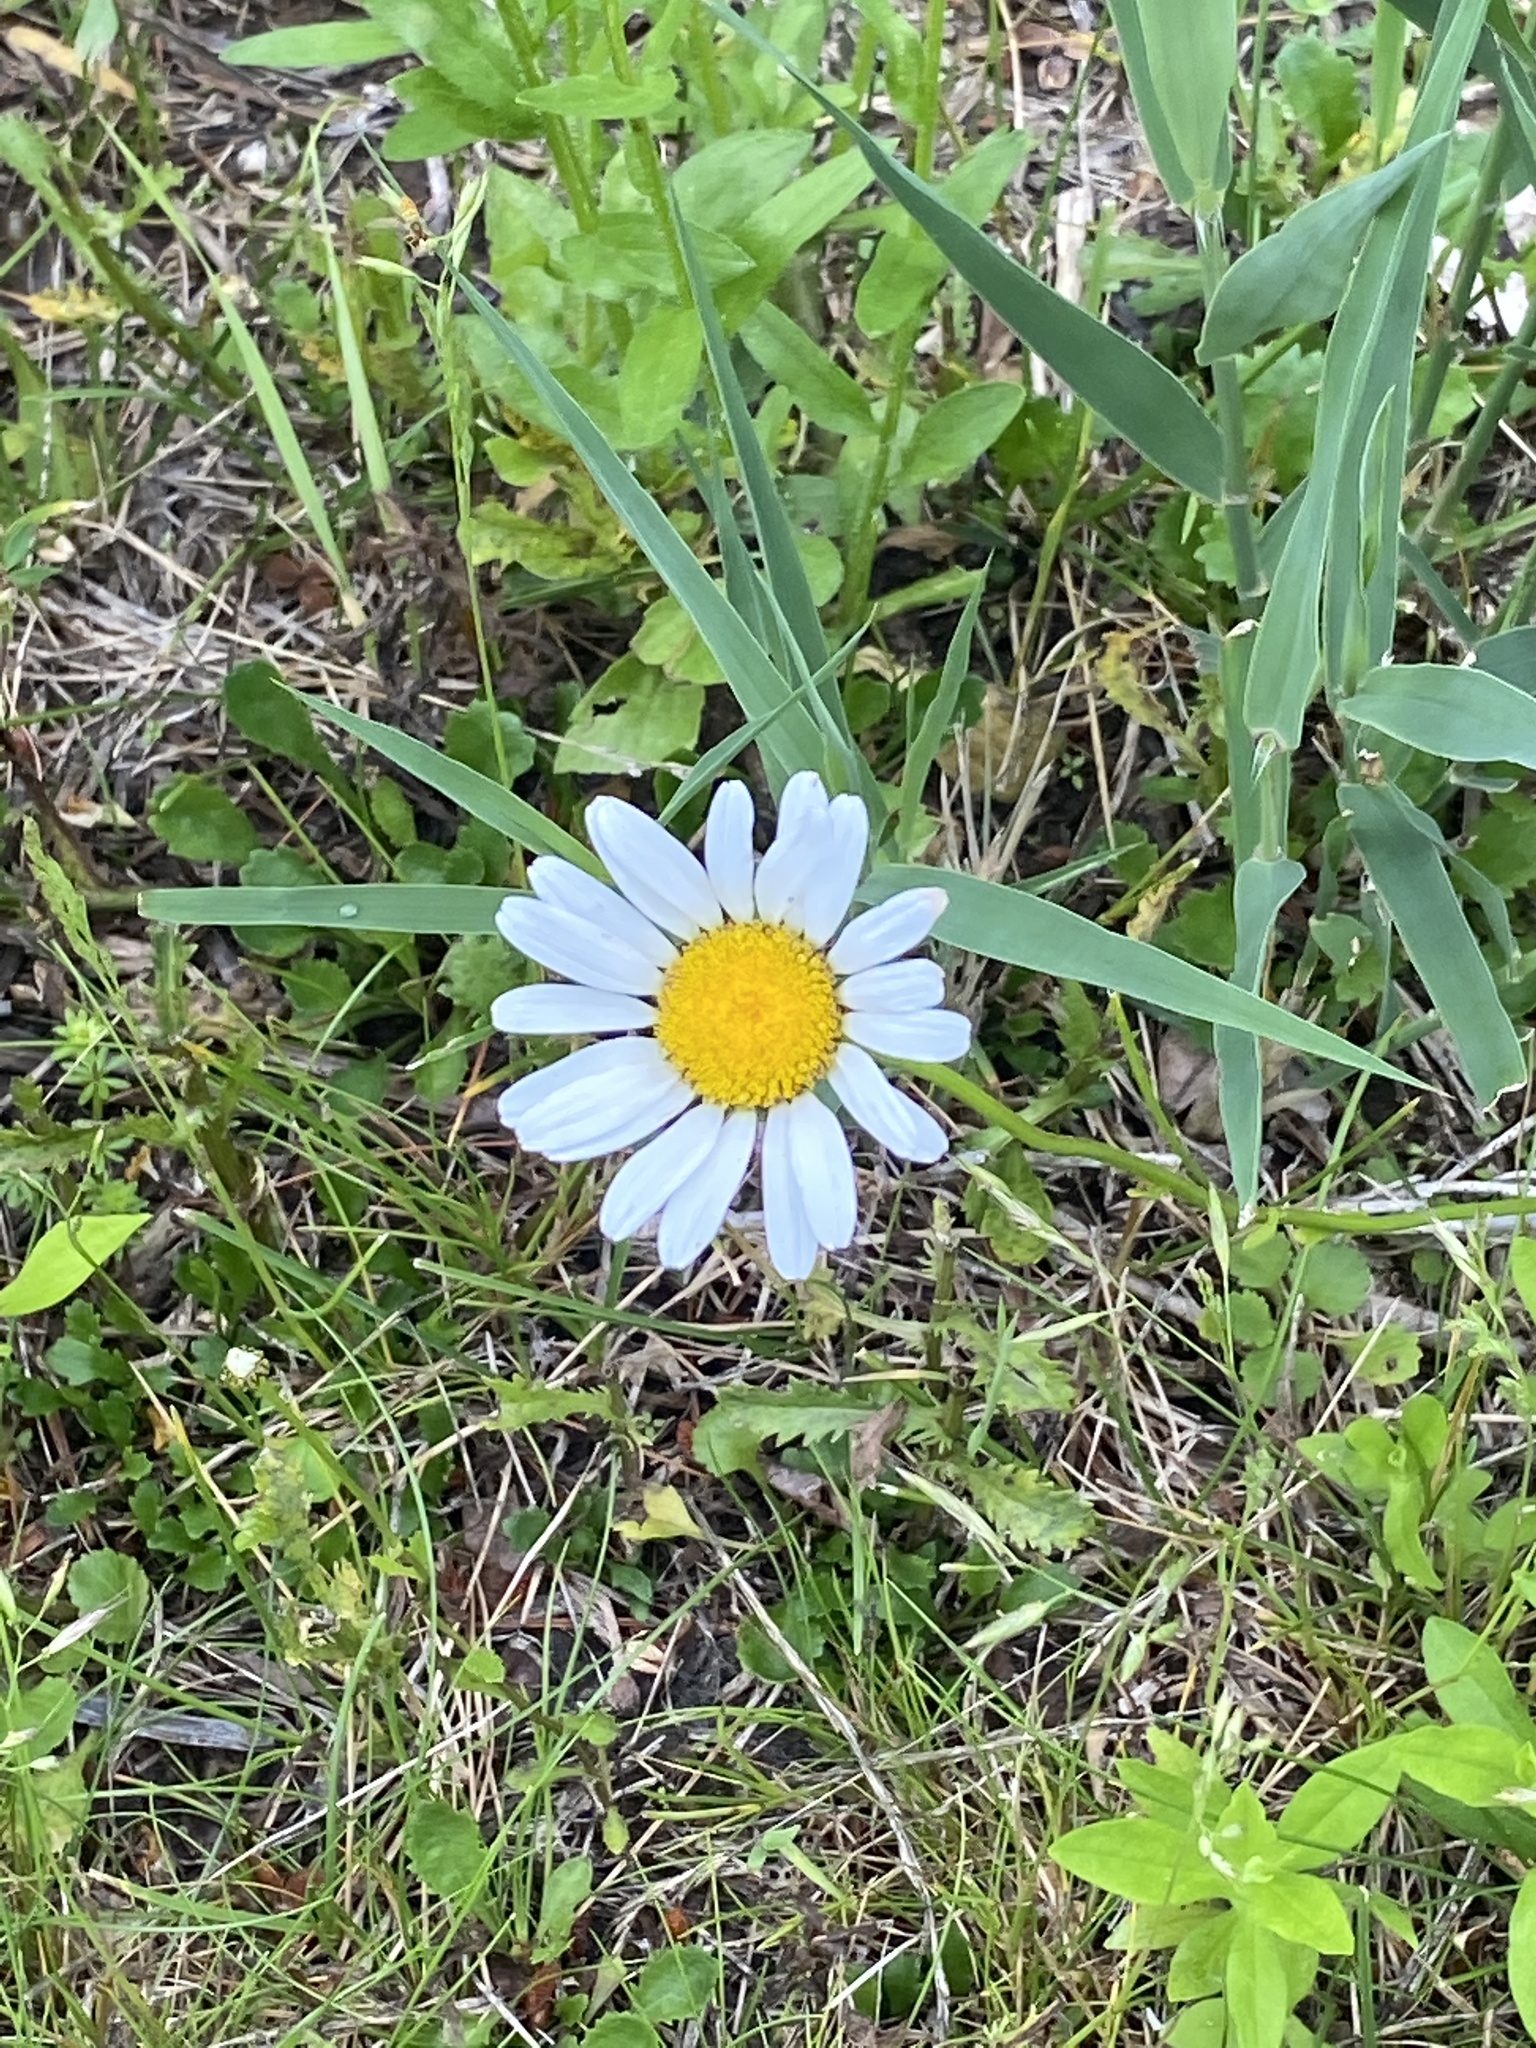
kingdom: Plantae
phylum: Tracheophyta
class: Magnoliopsida
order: Asterales
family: Asteraceae
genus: Leucanthemum
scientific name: Leucanthemum vulgare
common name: Oxeye daisy
